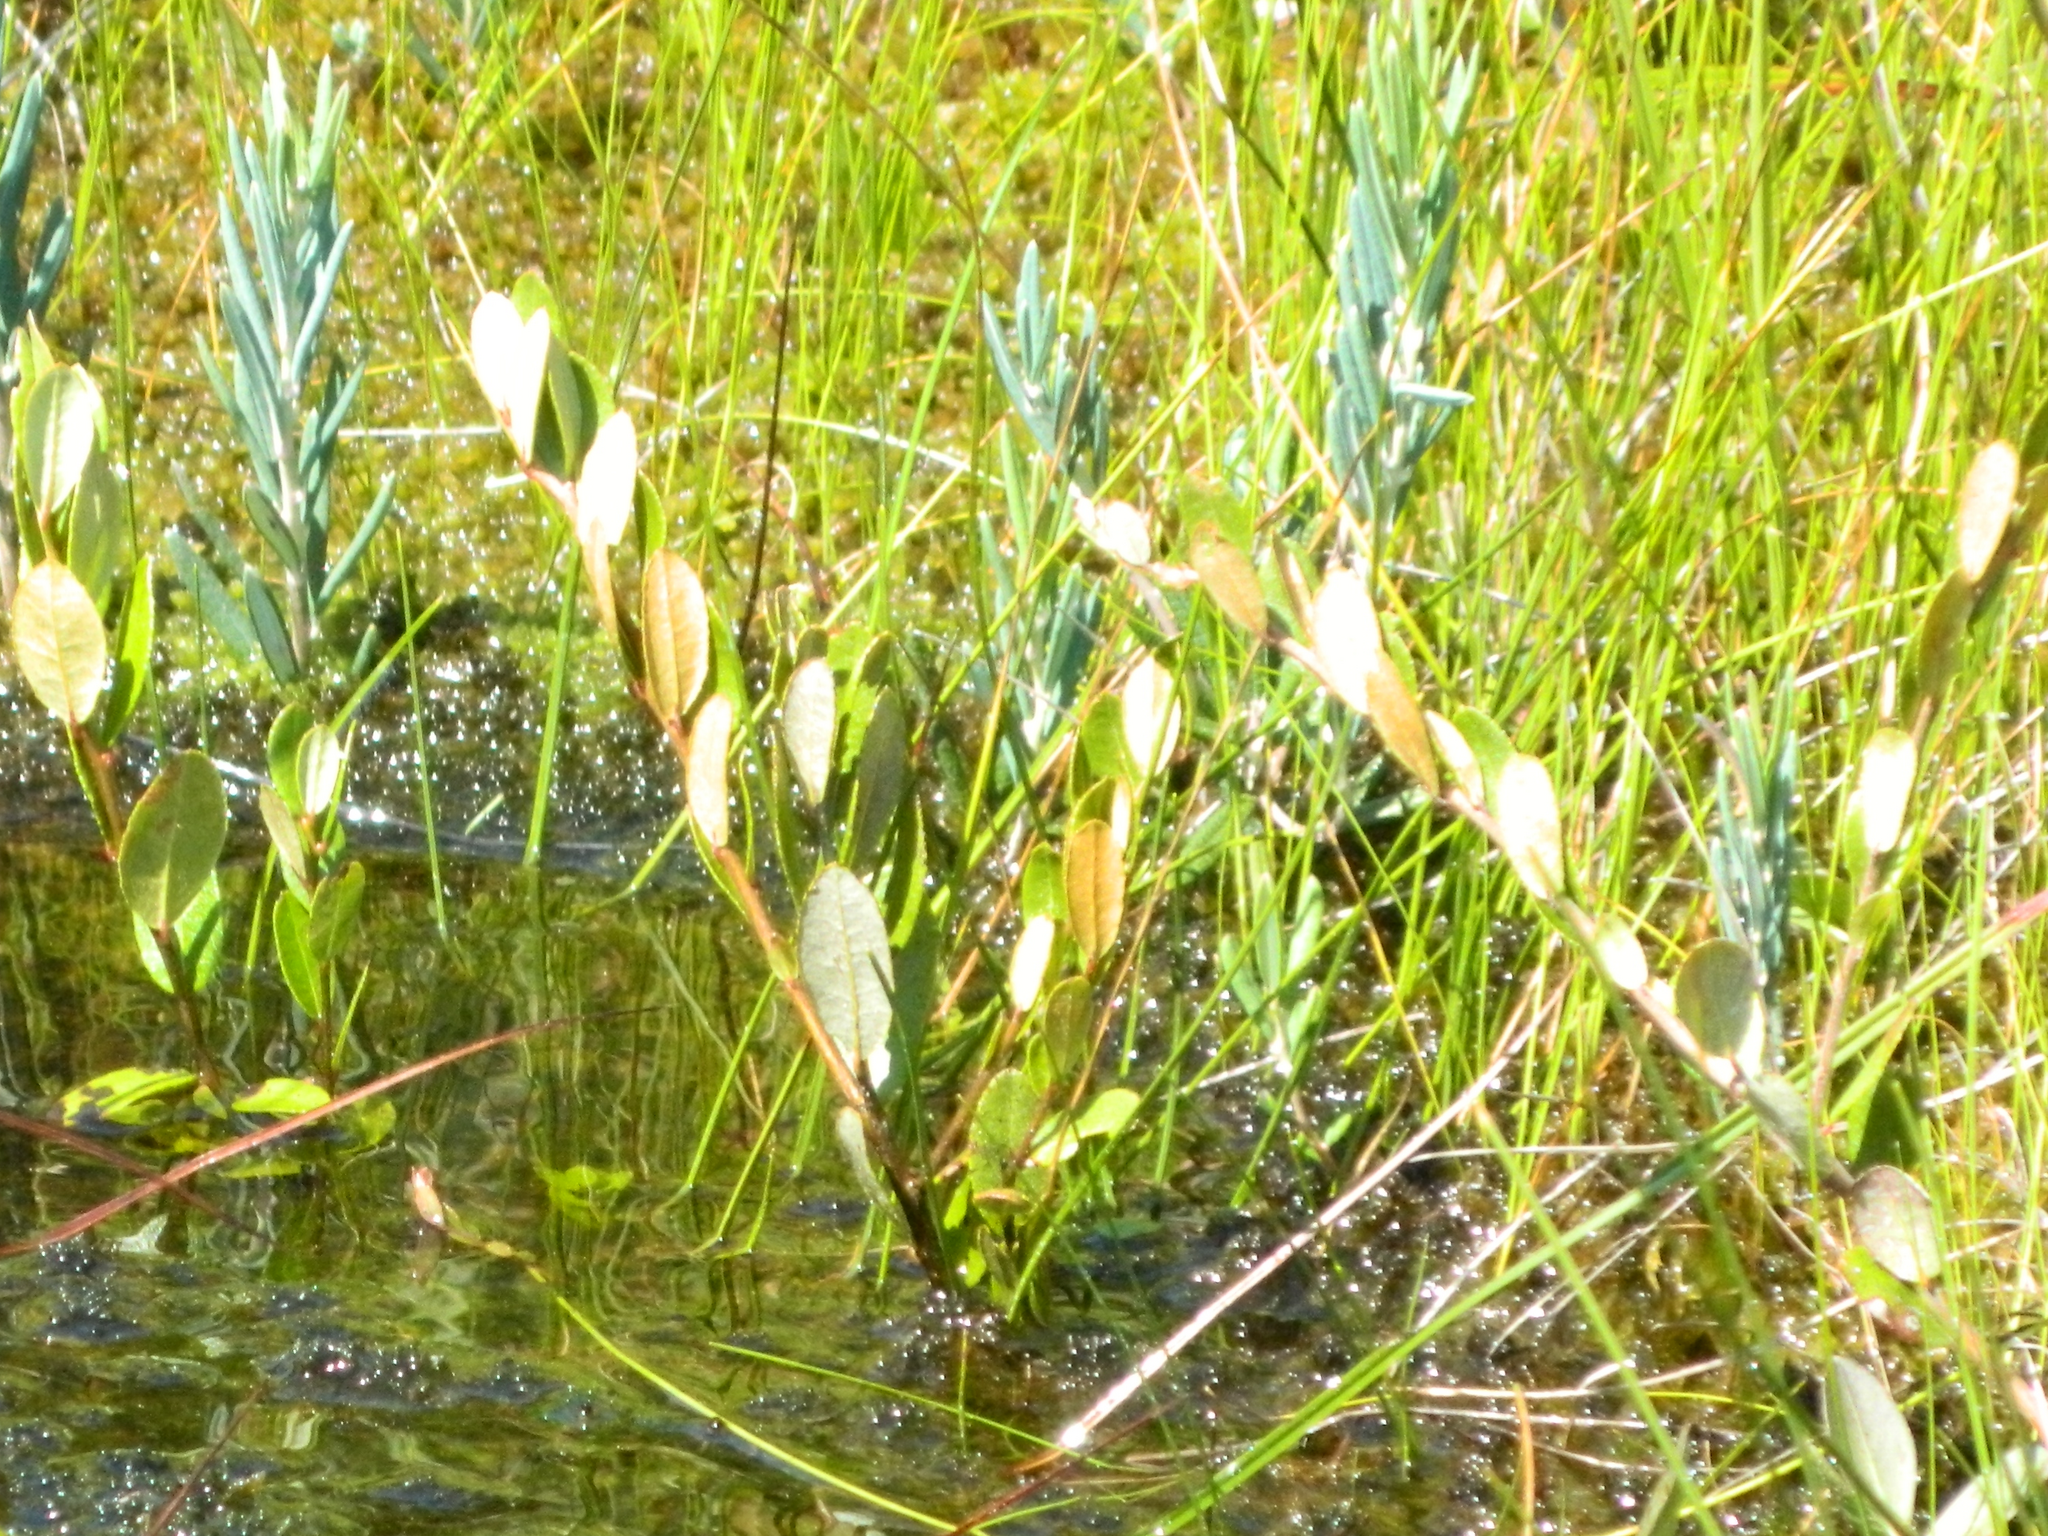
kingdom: Plantae
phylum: Tracheophyta
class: Magnoliopsida
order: Ericales
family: Ericaceae
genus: Chamaedaphne
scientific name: Chamaedaphne calyculata
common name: Leatherleaf
